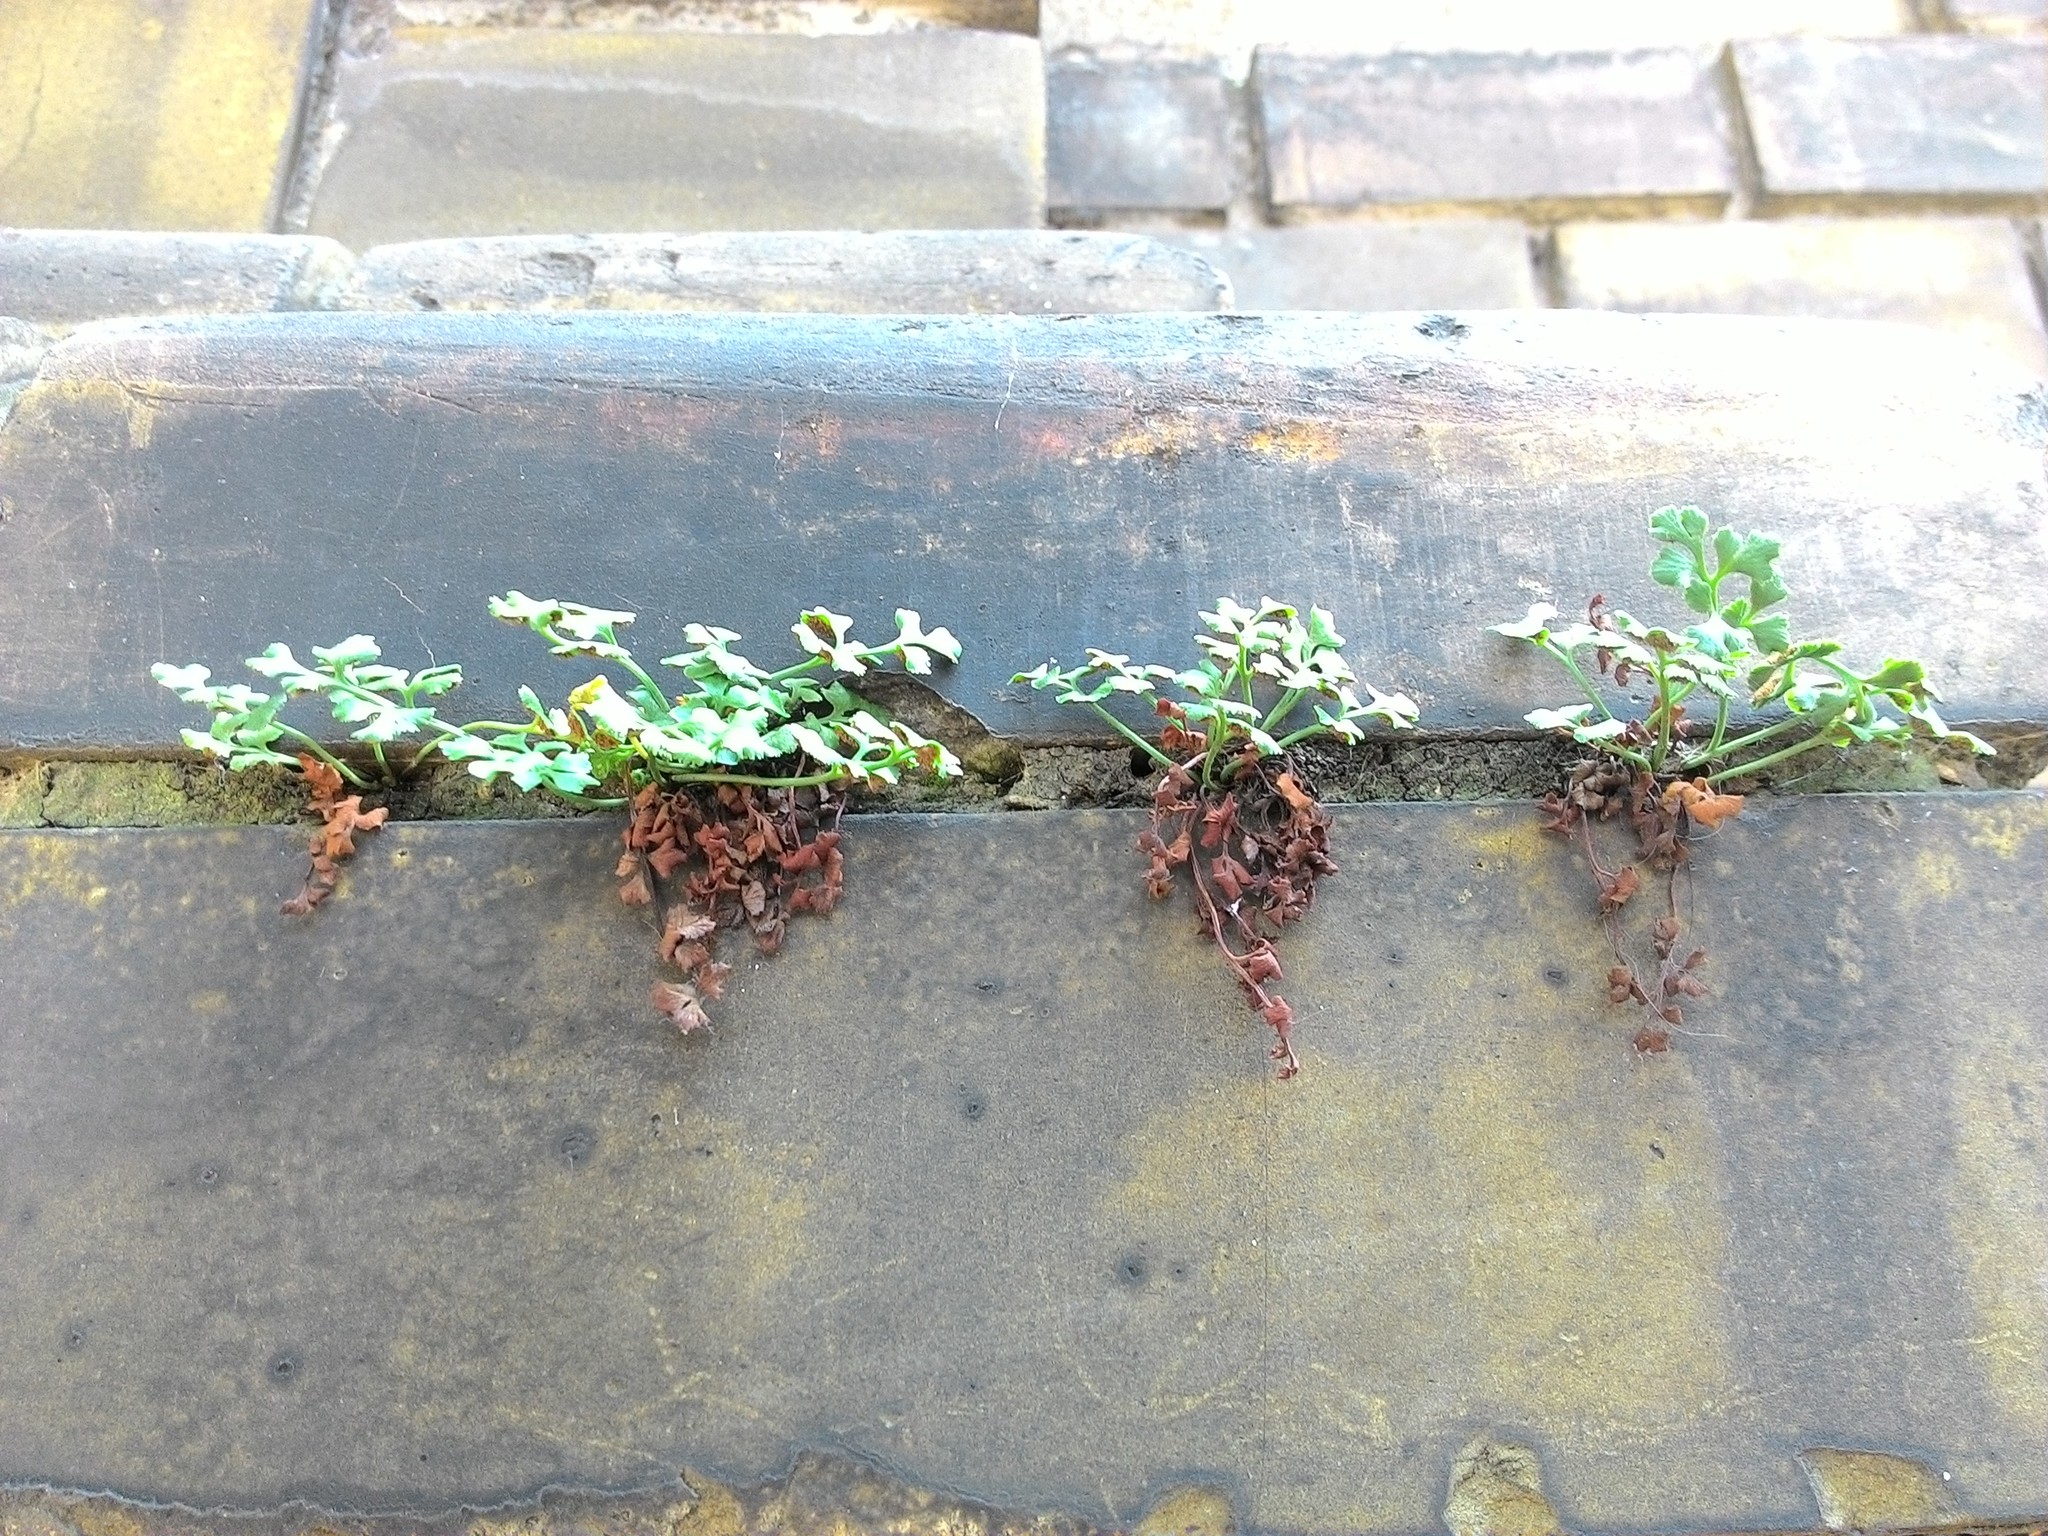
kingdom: Plantae
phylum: Tracheophyta
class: Polypodiopsida
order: Polypodiales
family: Aspleniaceae
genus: Asplenium
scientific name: Asplenium ruta-muraria
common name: Wall-rue
